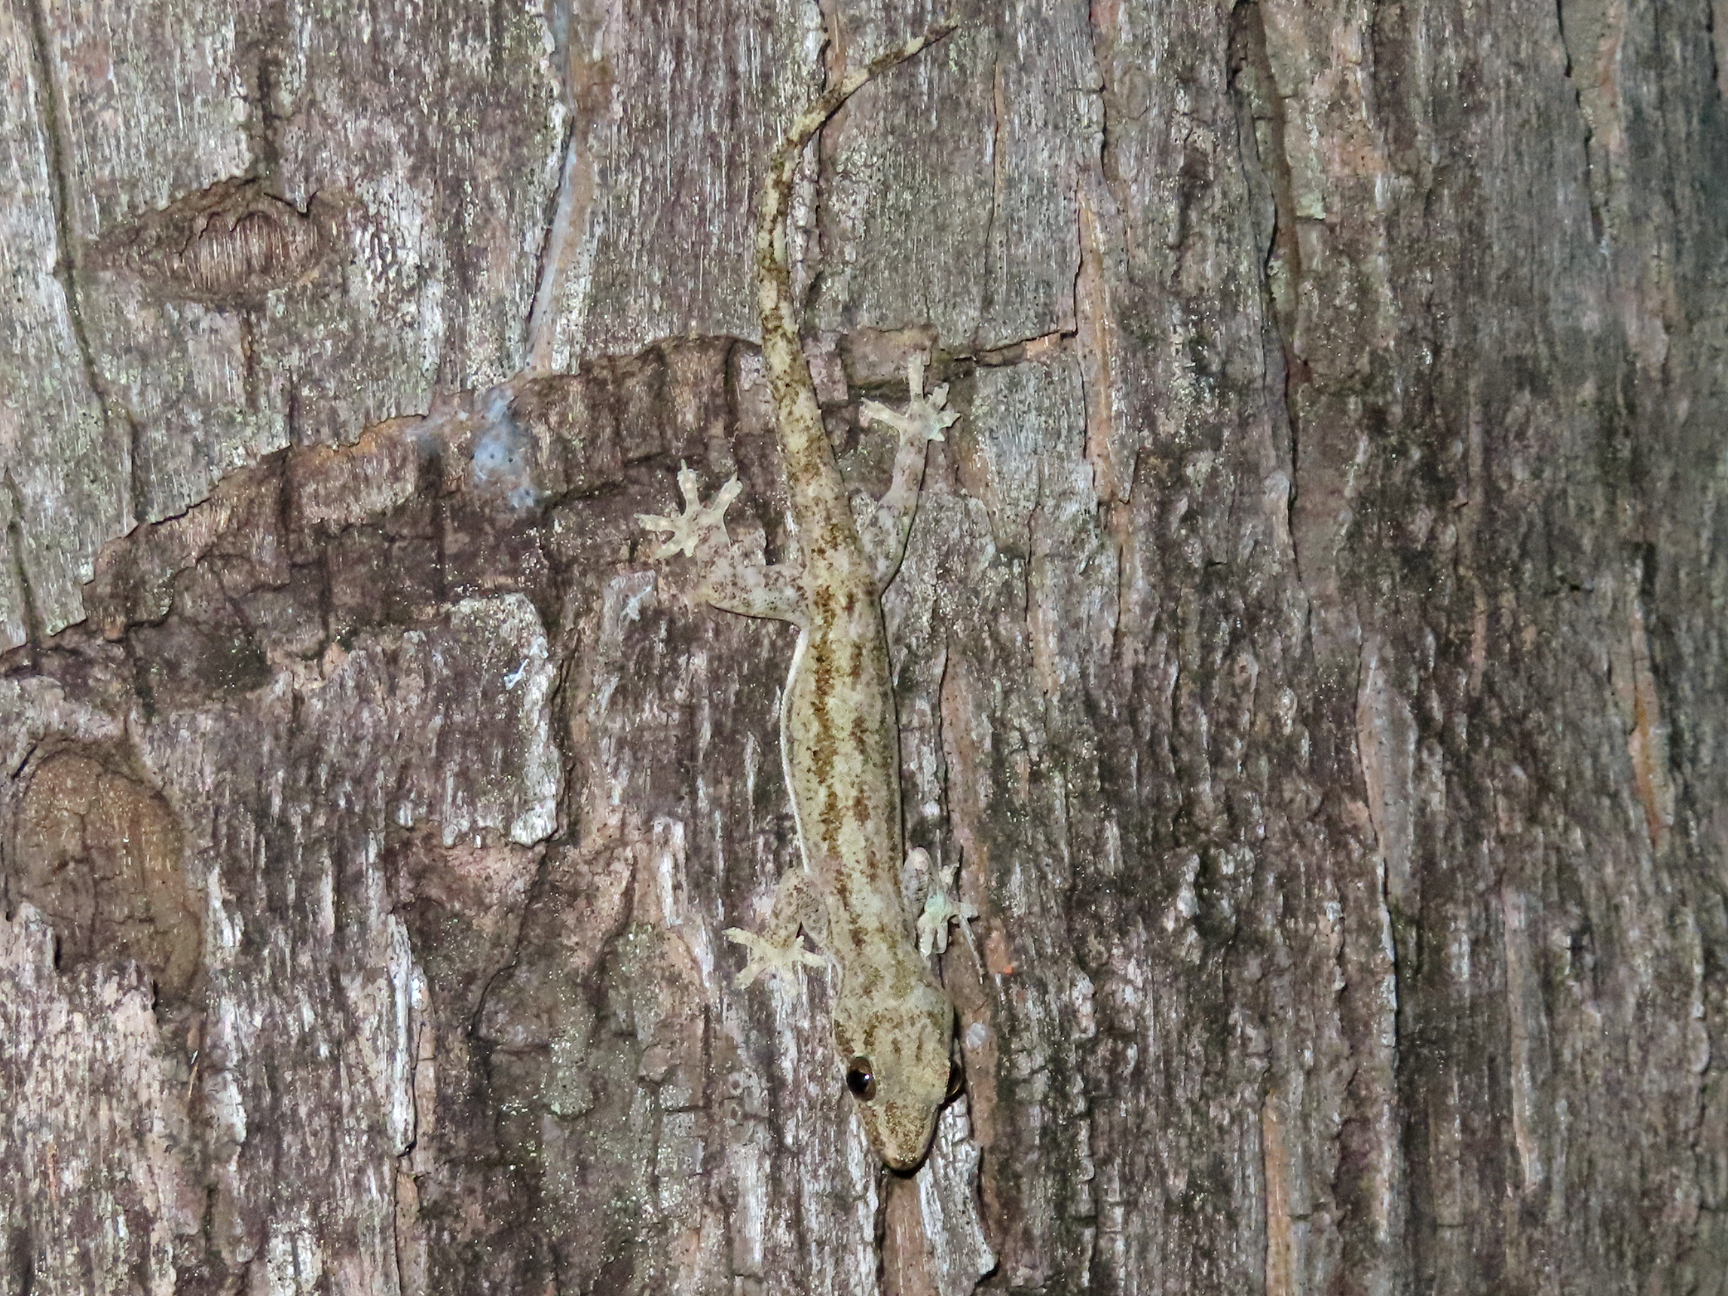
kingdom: Animalia
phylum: Chordata
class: Squamata
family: Gekkonidae
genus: Hemidactylus
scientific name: Hemidactylus frenatus
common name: Common house gecko
